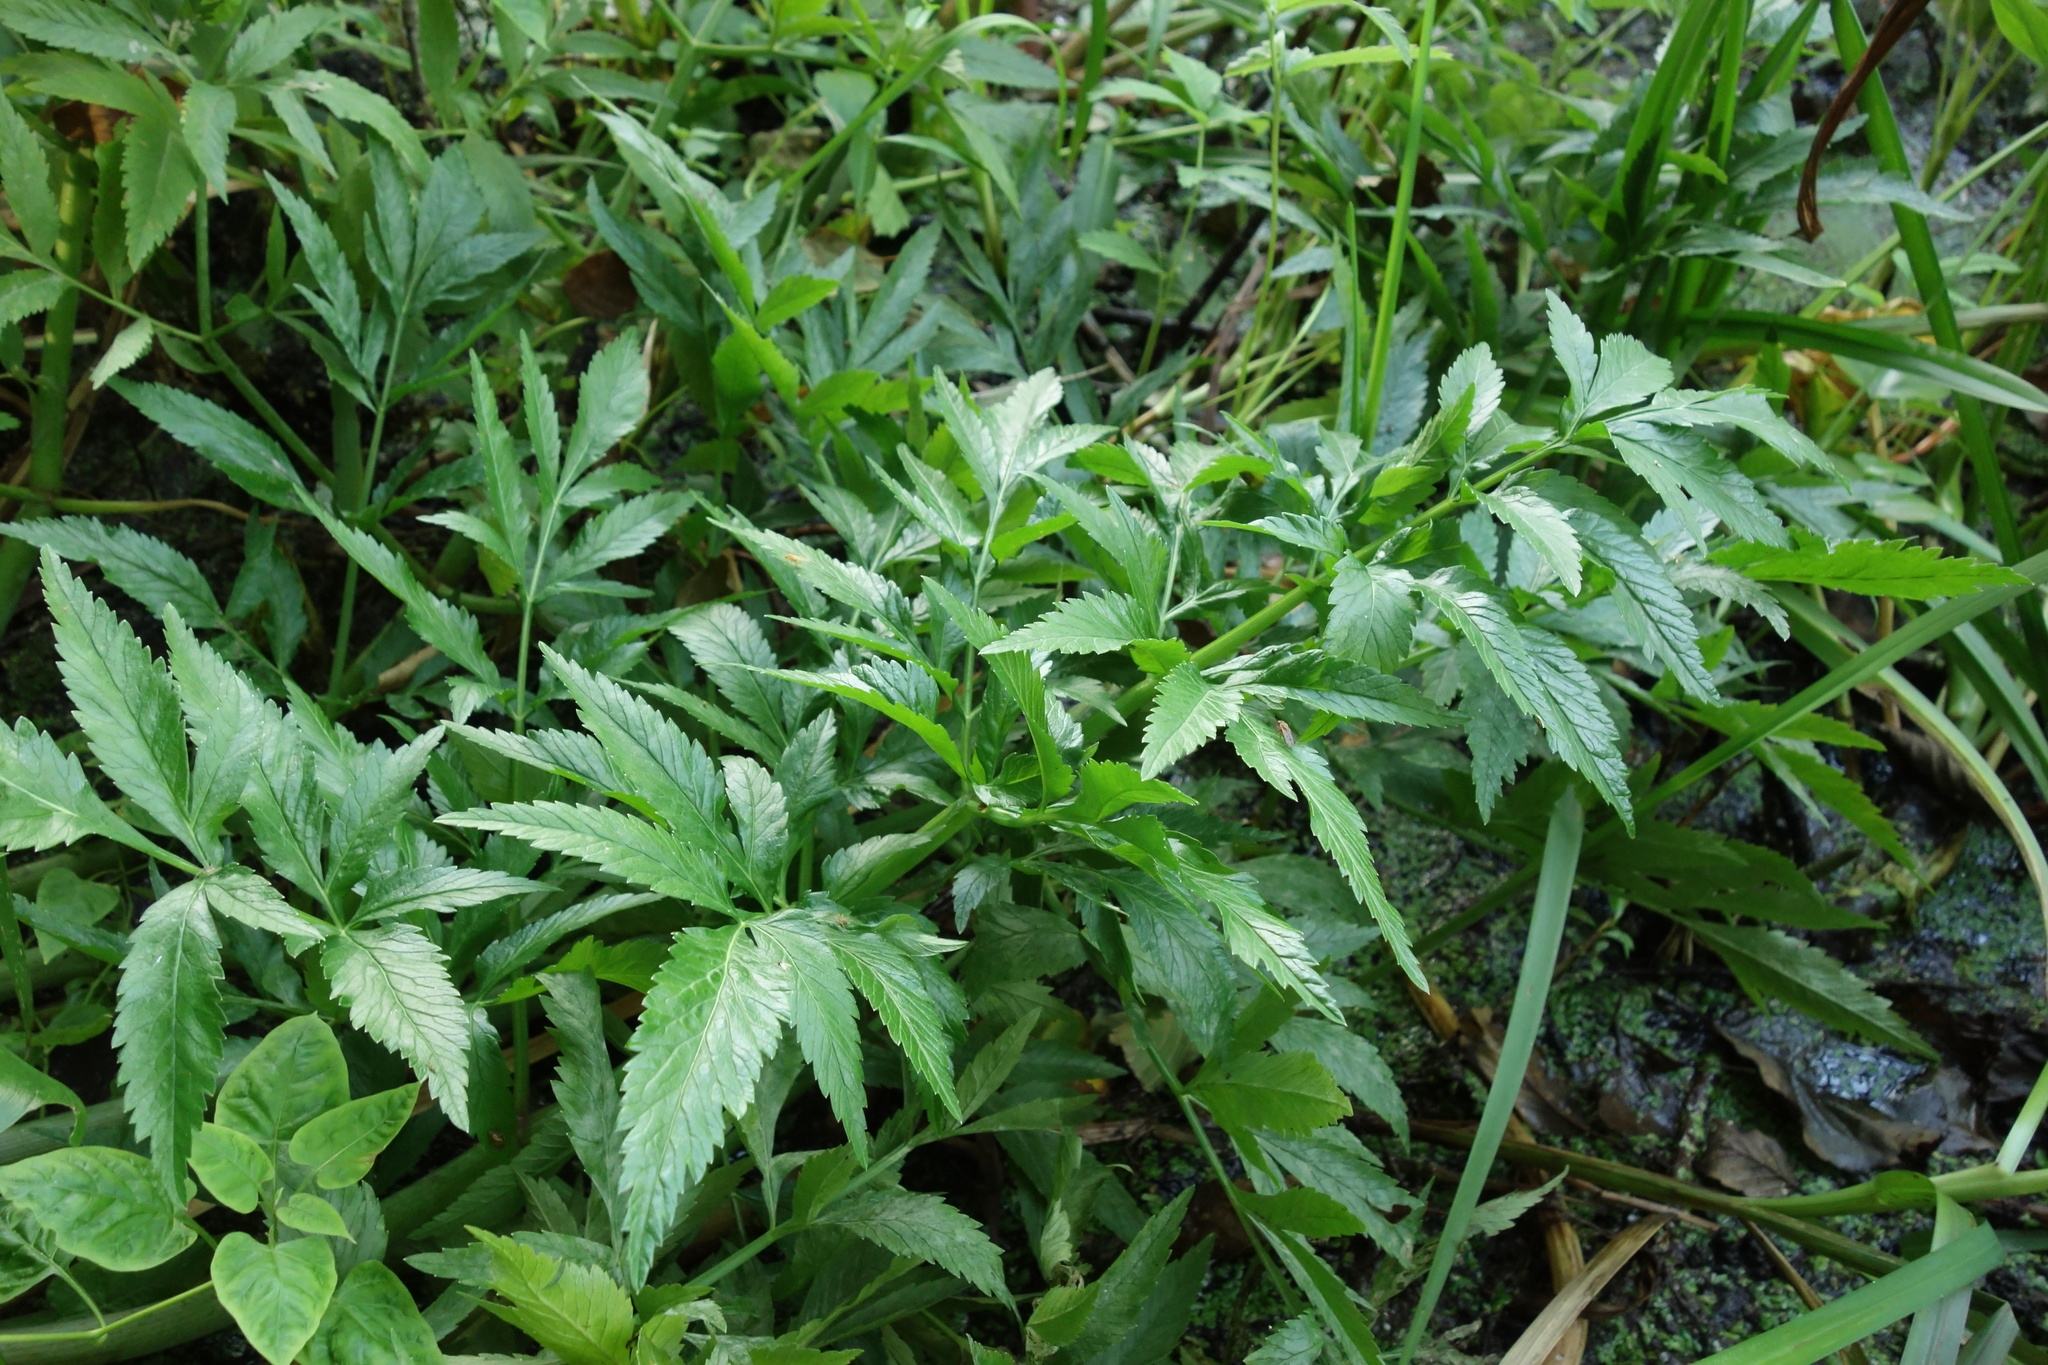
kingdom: Plantae
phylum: Tracheophyta
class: Magnoliopsida
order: Apiales
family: Apiaceae
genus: Cicuta
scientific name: Cicuta virosa
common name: Cowbane
